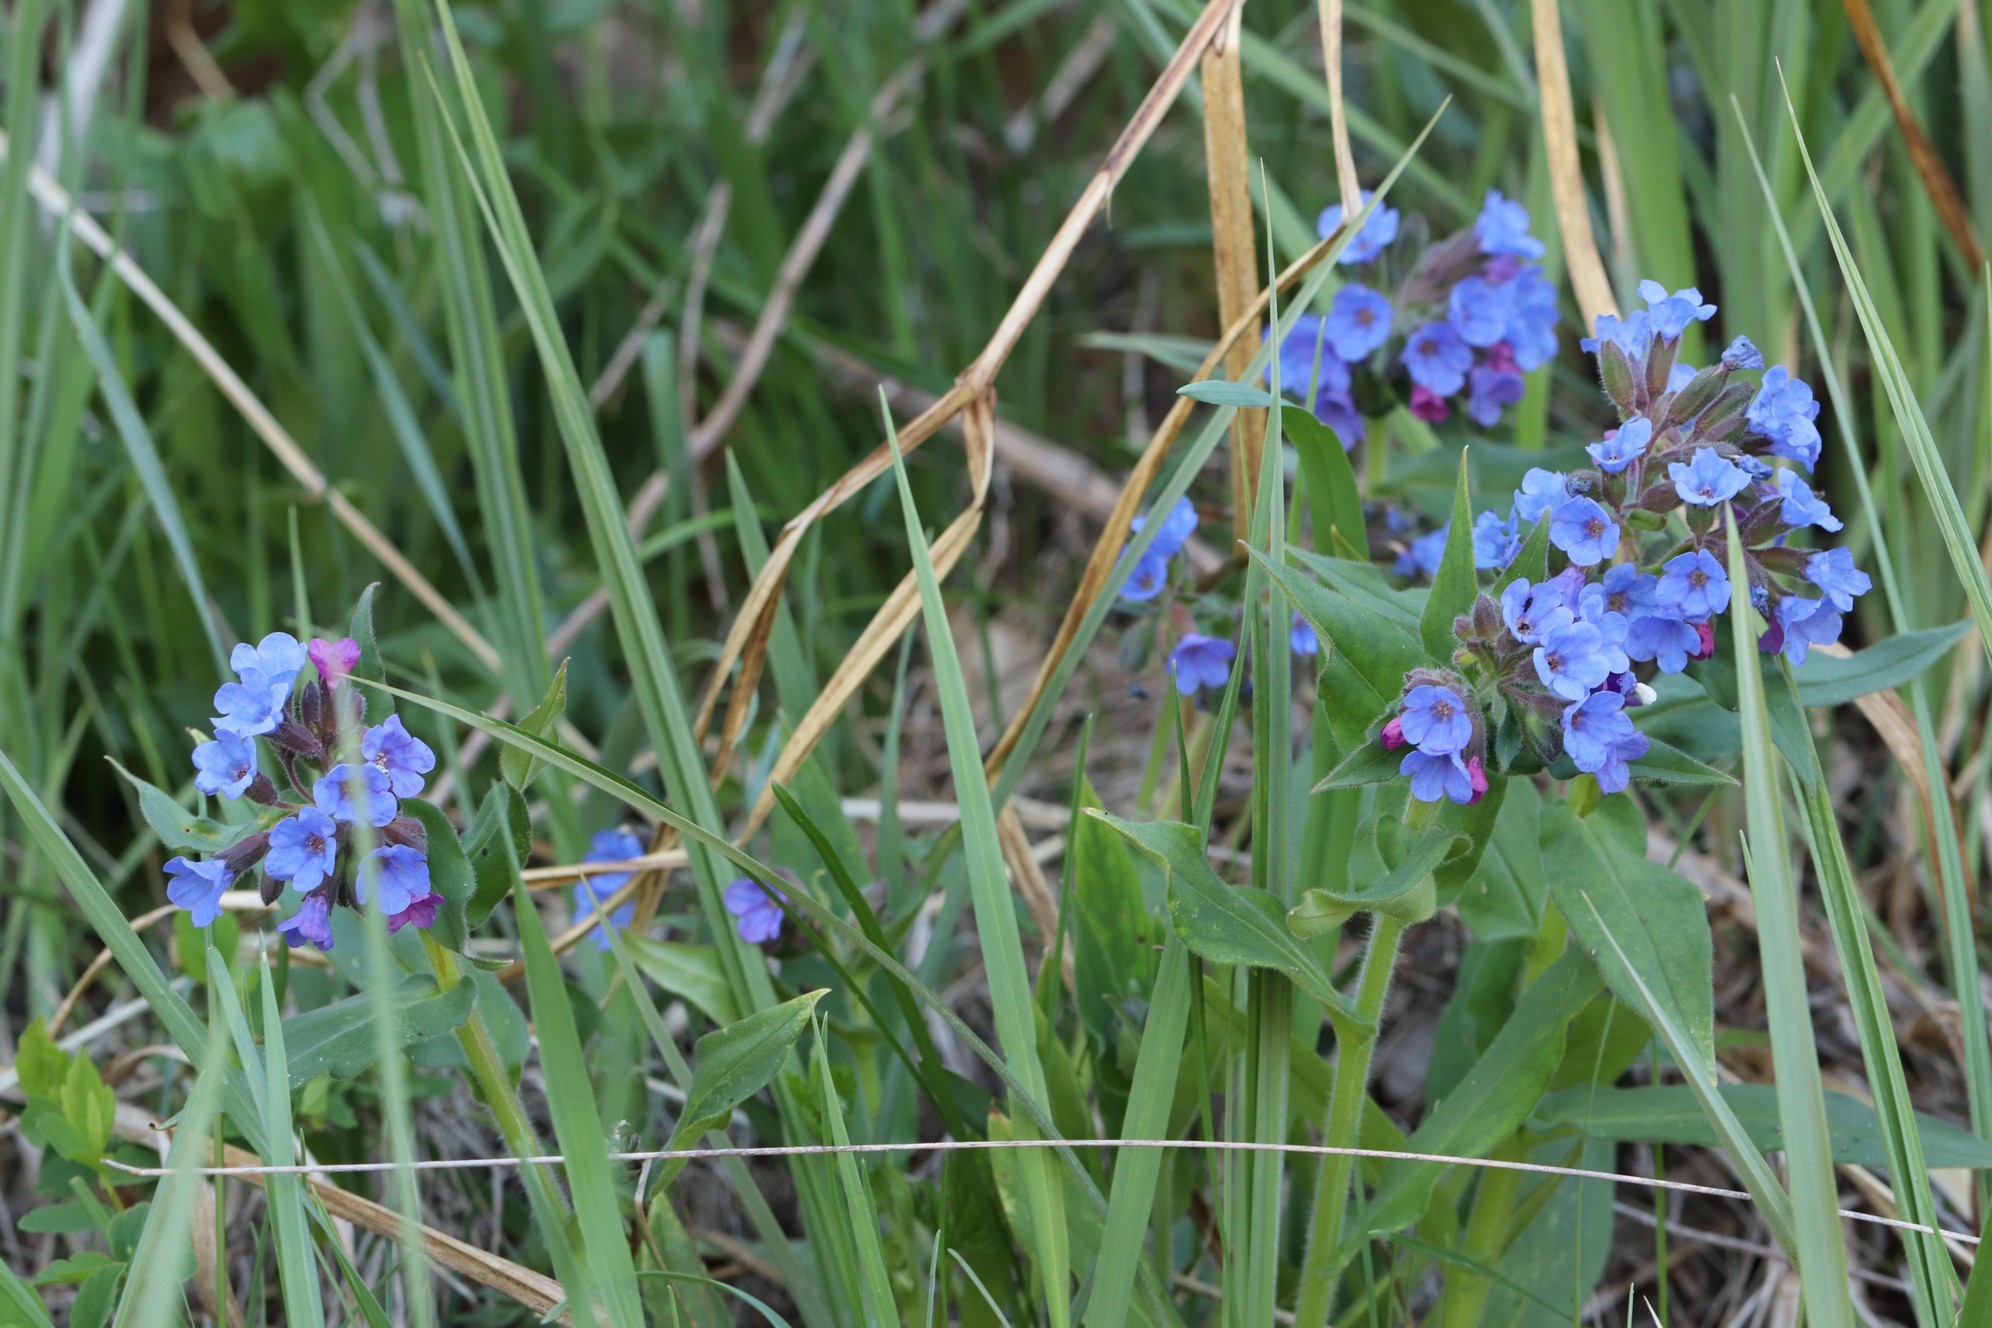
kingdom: Plantae
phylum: Tracheophyta
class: Magnoliopsida
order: Boraginales
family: Boraginaceae
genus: Pulmonaria
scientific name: Pulmonaria mollis
